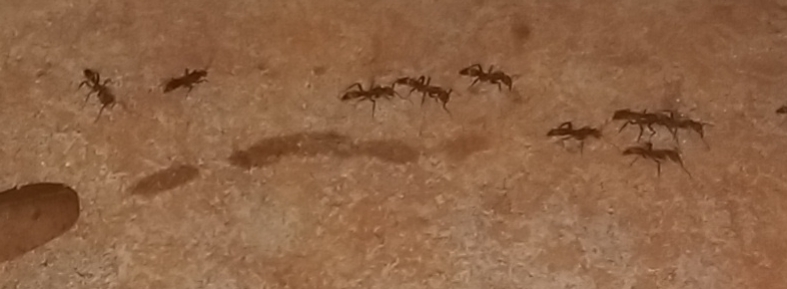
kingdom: Animalia
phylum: Arthropoda
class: Insecta
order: Hymenoptera
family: Formicidae
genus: Leptogenys
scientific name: Leptogenys falcigera
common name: Ant
